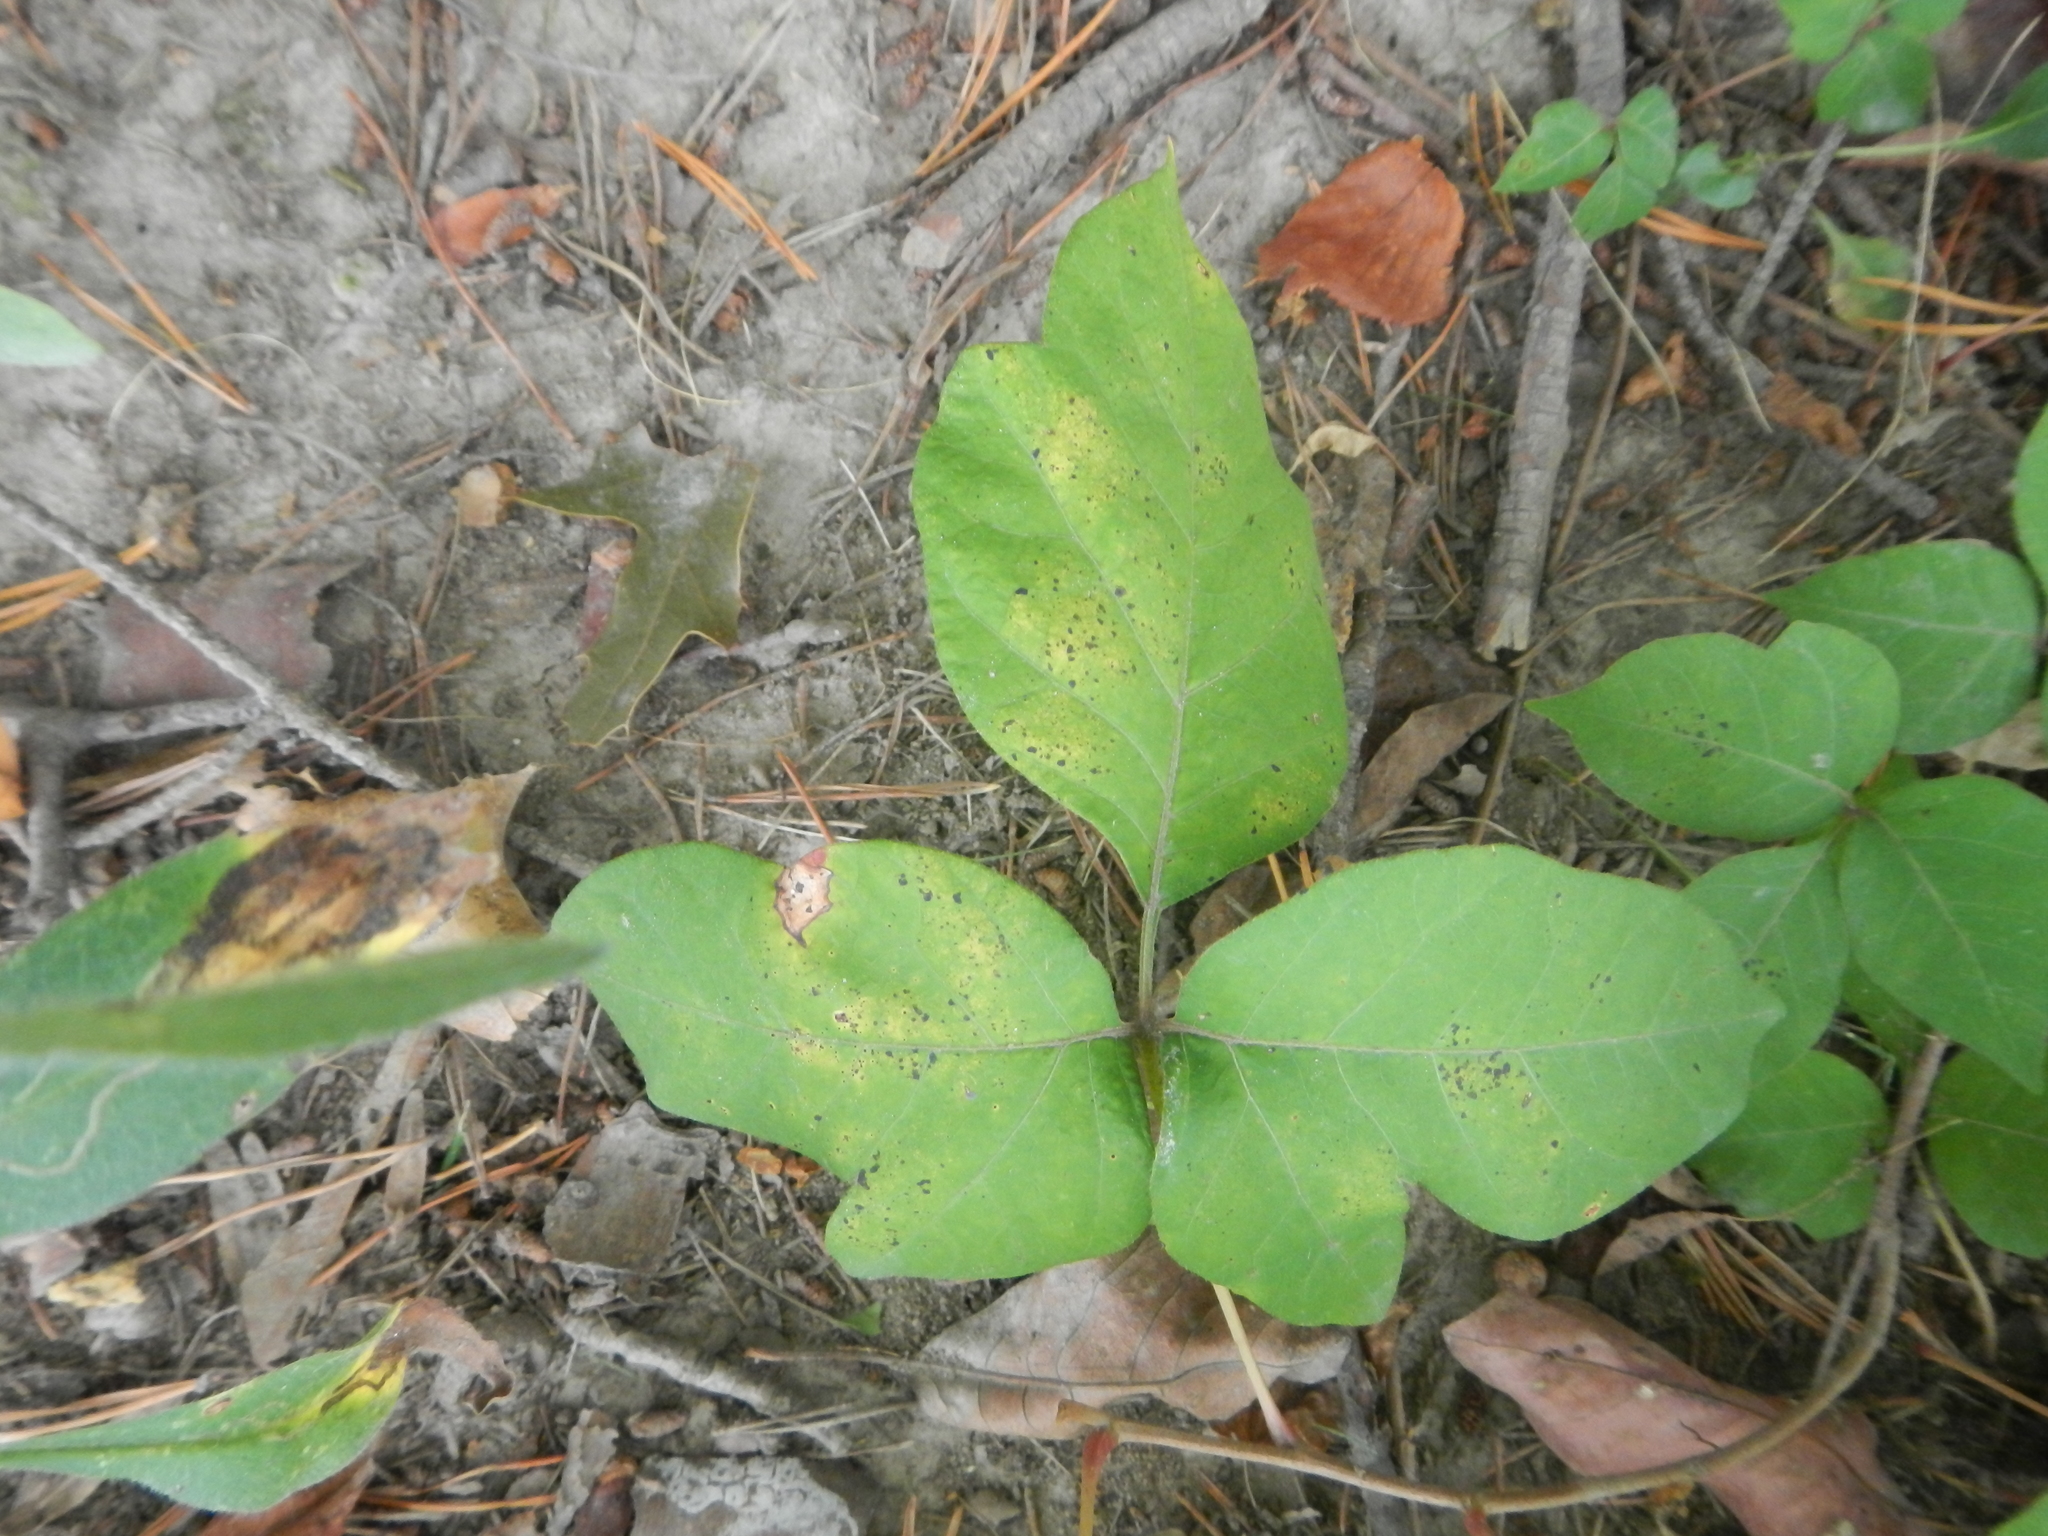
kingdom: Plantae
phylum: Tracheophyta
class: Magnoliopsida
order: Sapindales
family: Anacardiaceae
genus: Toxicodendron
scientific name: Toxicodendron radicans
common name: Poison ivy
